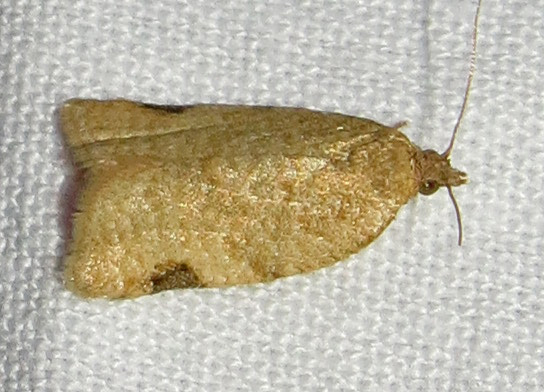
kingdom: Animalia
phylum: Arthropoda
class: Insecta
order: Lepidoptera
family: Tortricidae
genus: Clepsis
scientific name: Clepsis virescana
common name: Greenish apple moth
